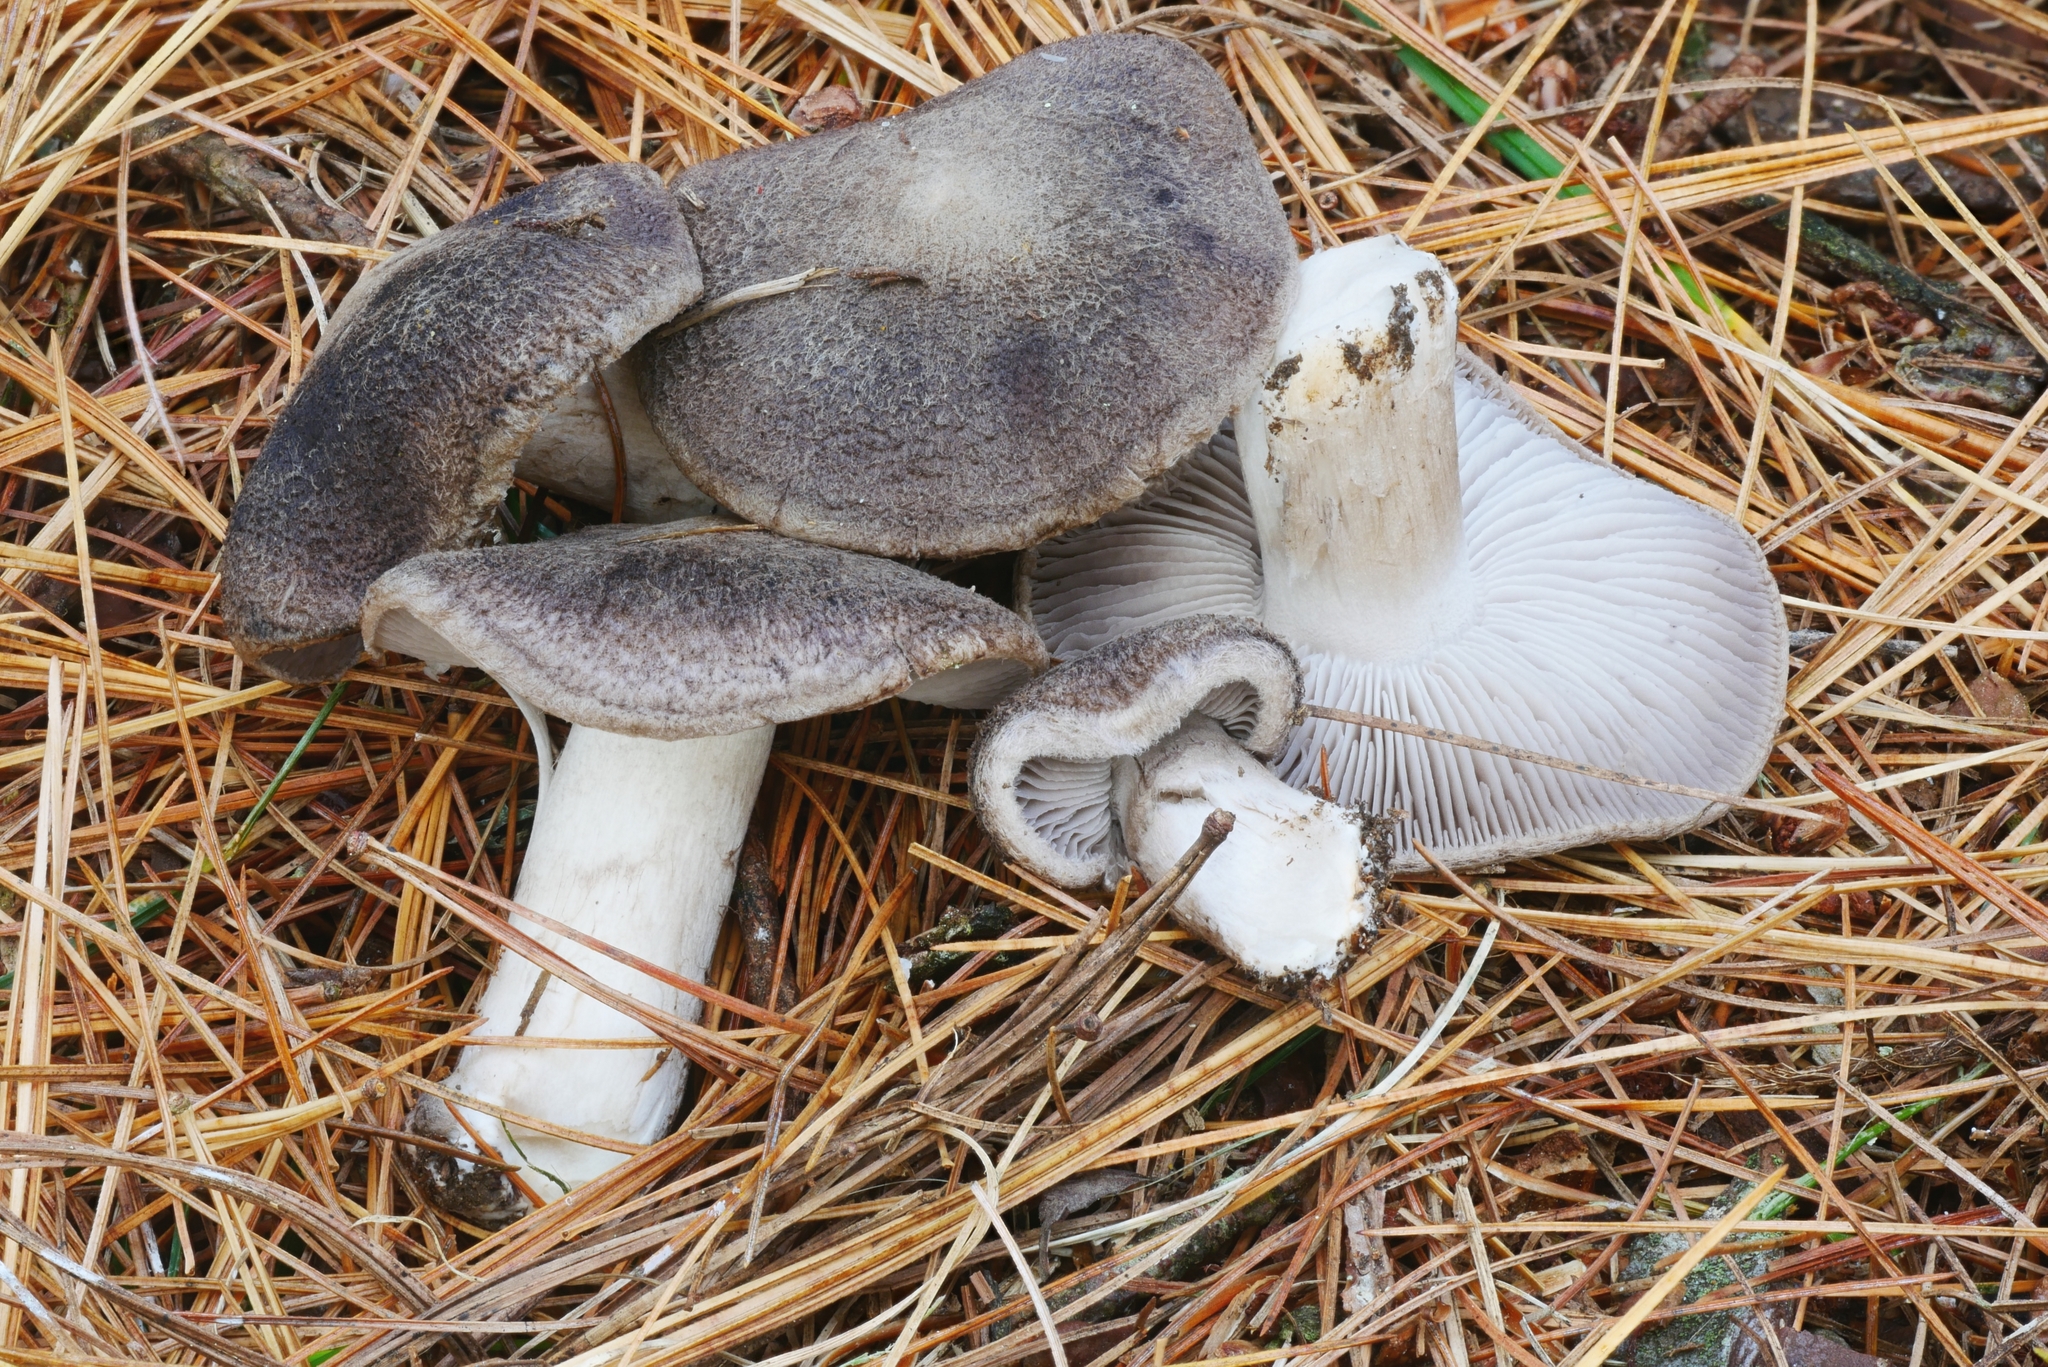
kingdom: Fungi
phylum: Basidiomycota
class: Agaricomycetes
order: Agaricales
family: Tricholomataceae
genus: Tricholoma
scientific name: Tricholoma terreum
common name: Grey knight
